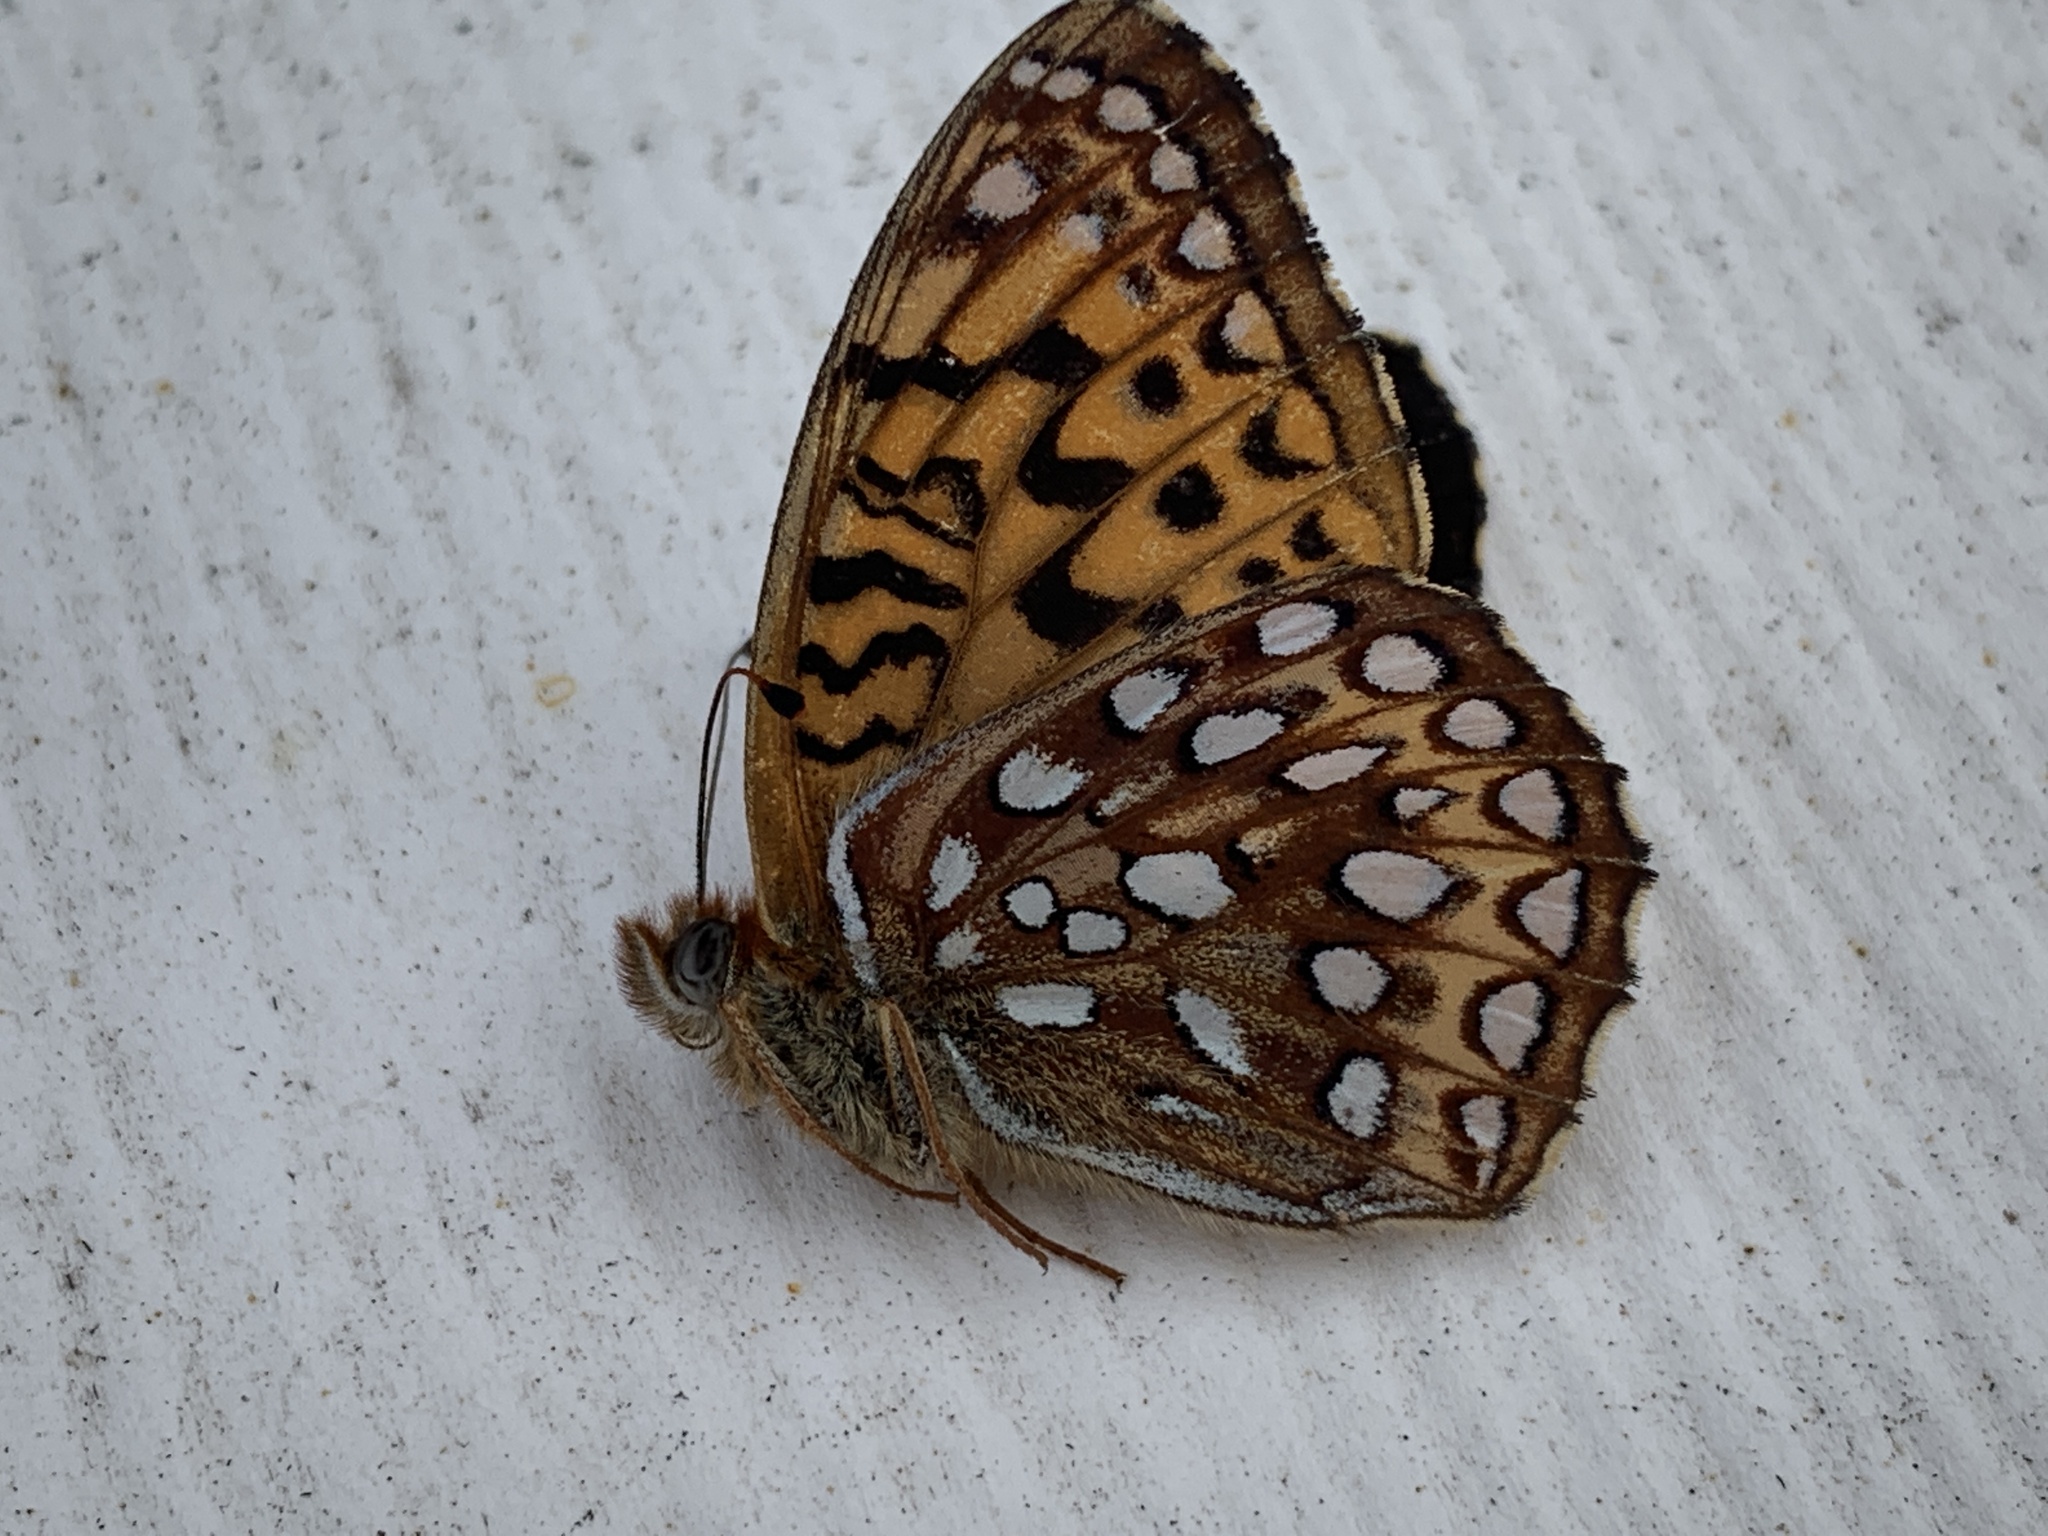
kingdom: Animalia
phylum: Arthropoda
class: Insecta
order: Lepidoptera
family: Nymphalidae
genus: Speyeria
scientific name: Speyeria atlantis
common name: Atlantis fritillary
